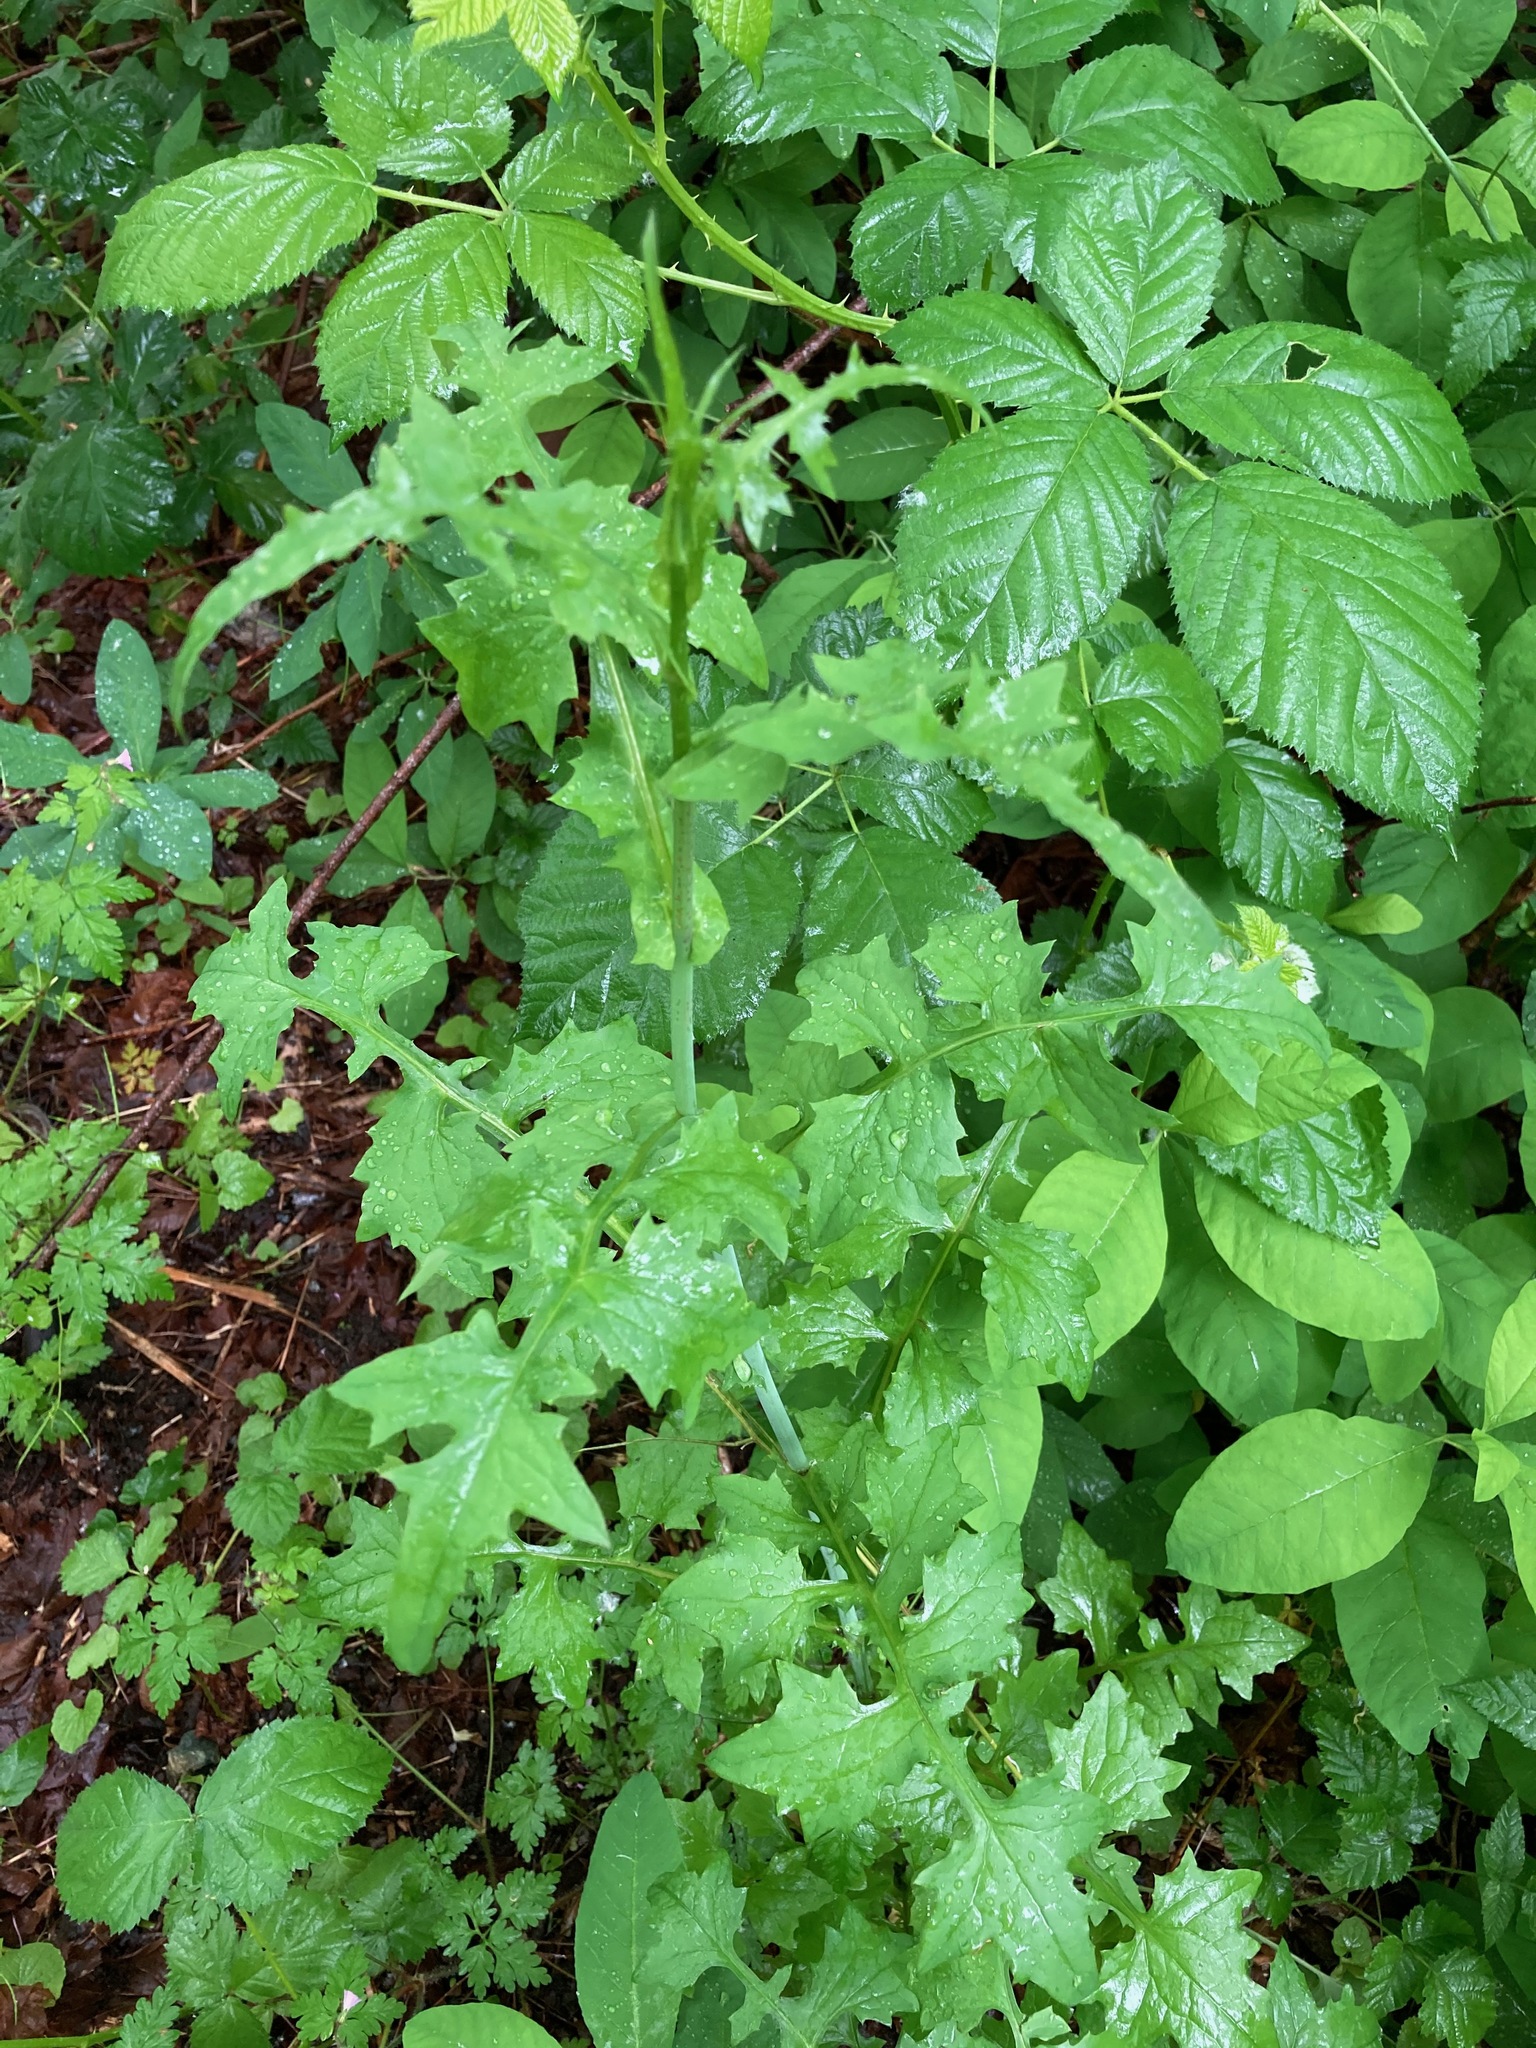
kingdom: Plantae
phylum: Tracheophyta
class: Magnoliopsida
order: Asterales
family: Asteraceae
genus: Mycelis
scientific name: Mycelis muralis
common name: Wall lettuce
